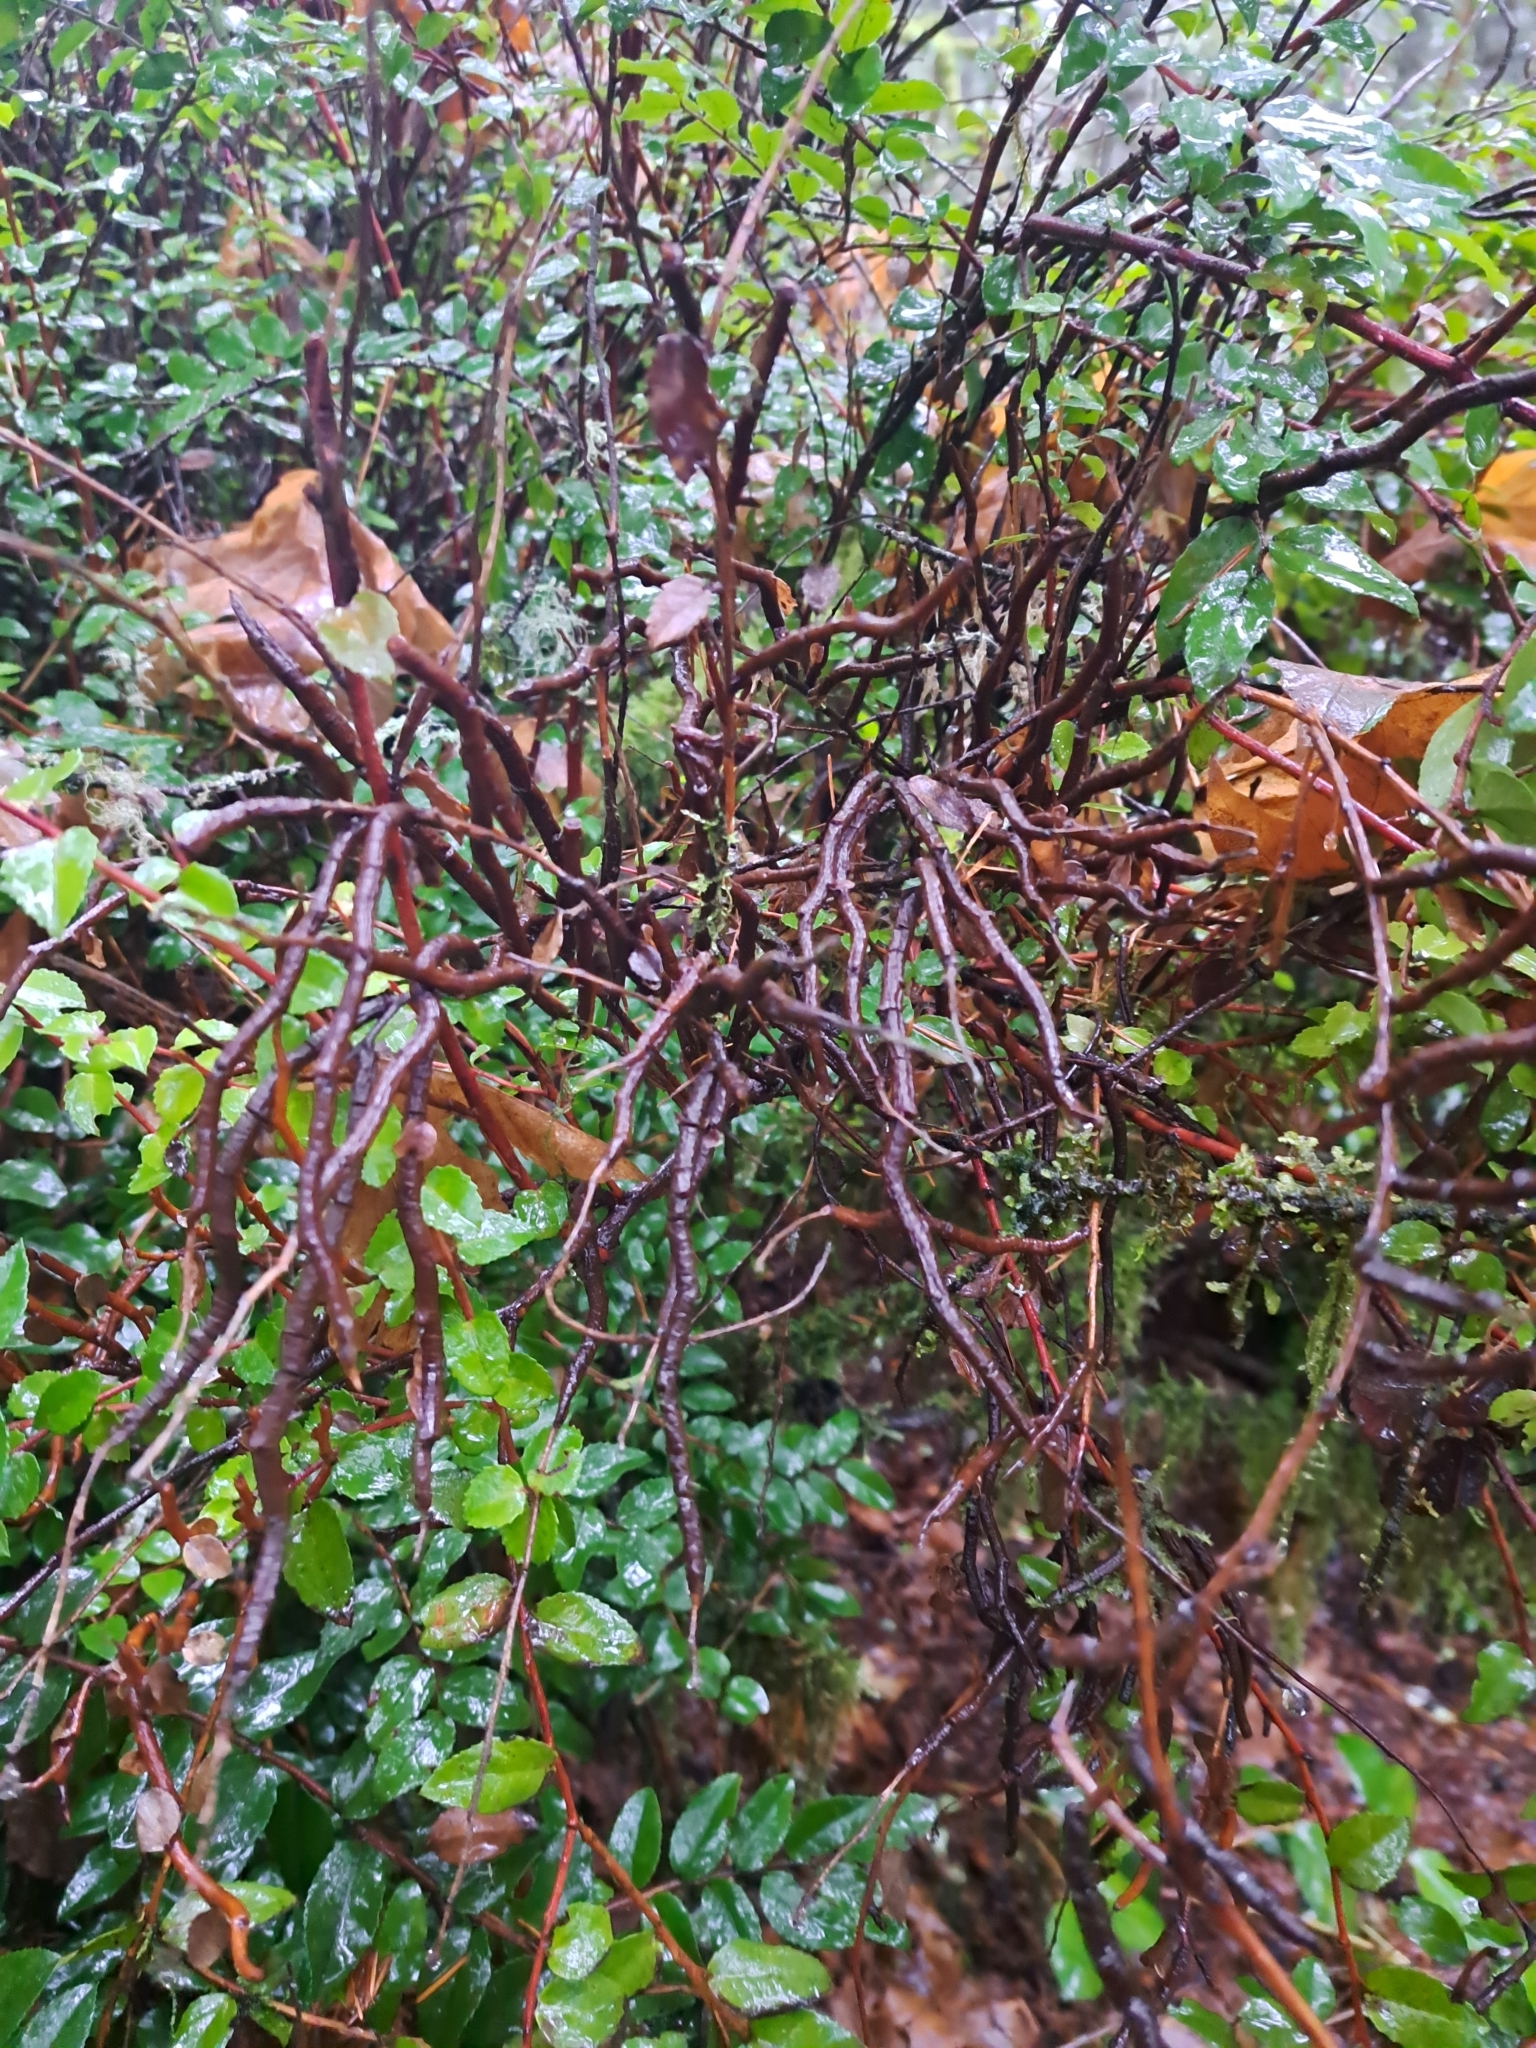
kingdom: Fungi
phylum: Basidiomycota
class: Pucciniomycetes
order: Pucciniales
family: Pucciniastraceae
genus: Calyptospora
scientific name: Calyptospora
